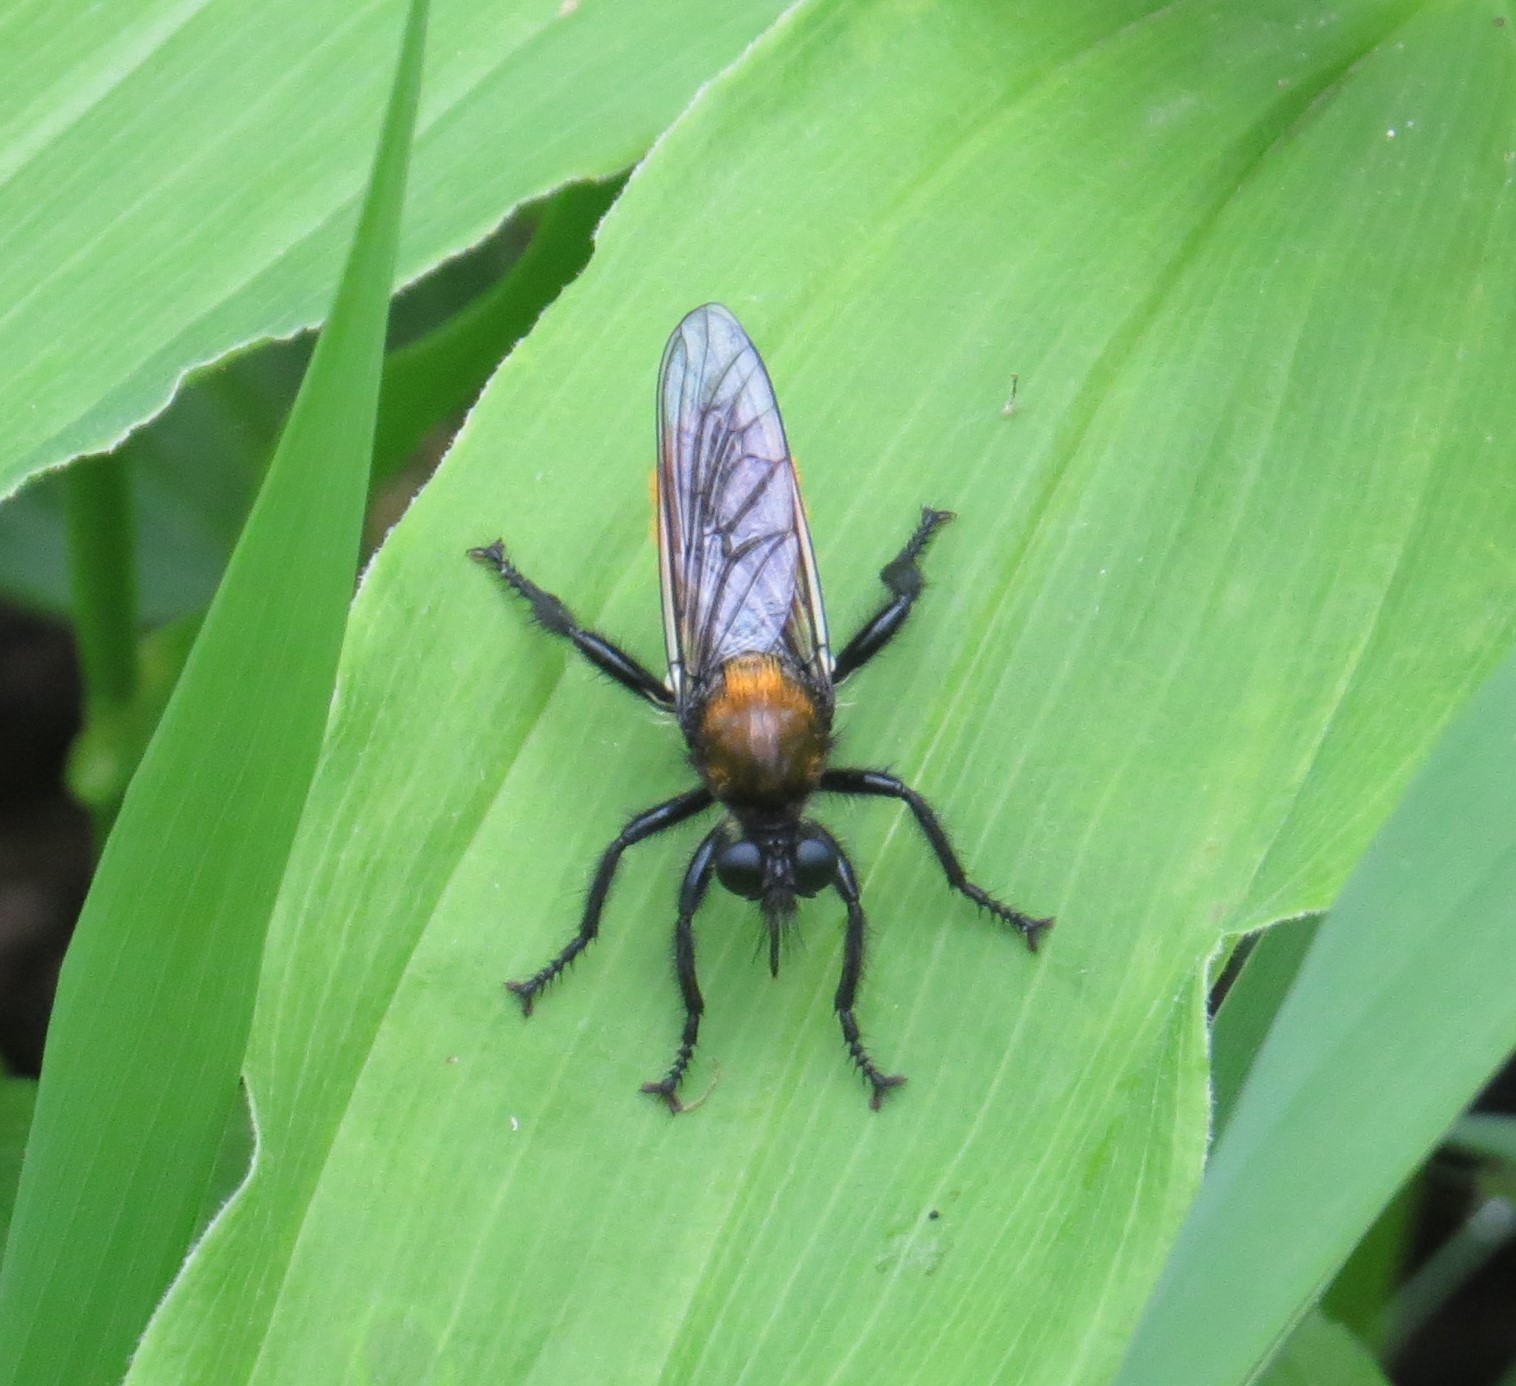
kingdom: Animalia
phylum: Arthropoda
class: Insecta
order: Diptera
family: Asilidae
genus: Laphria
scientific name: Laphria
